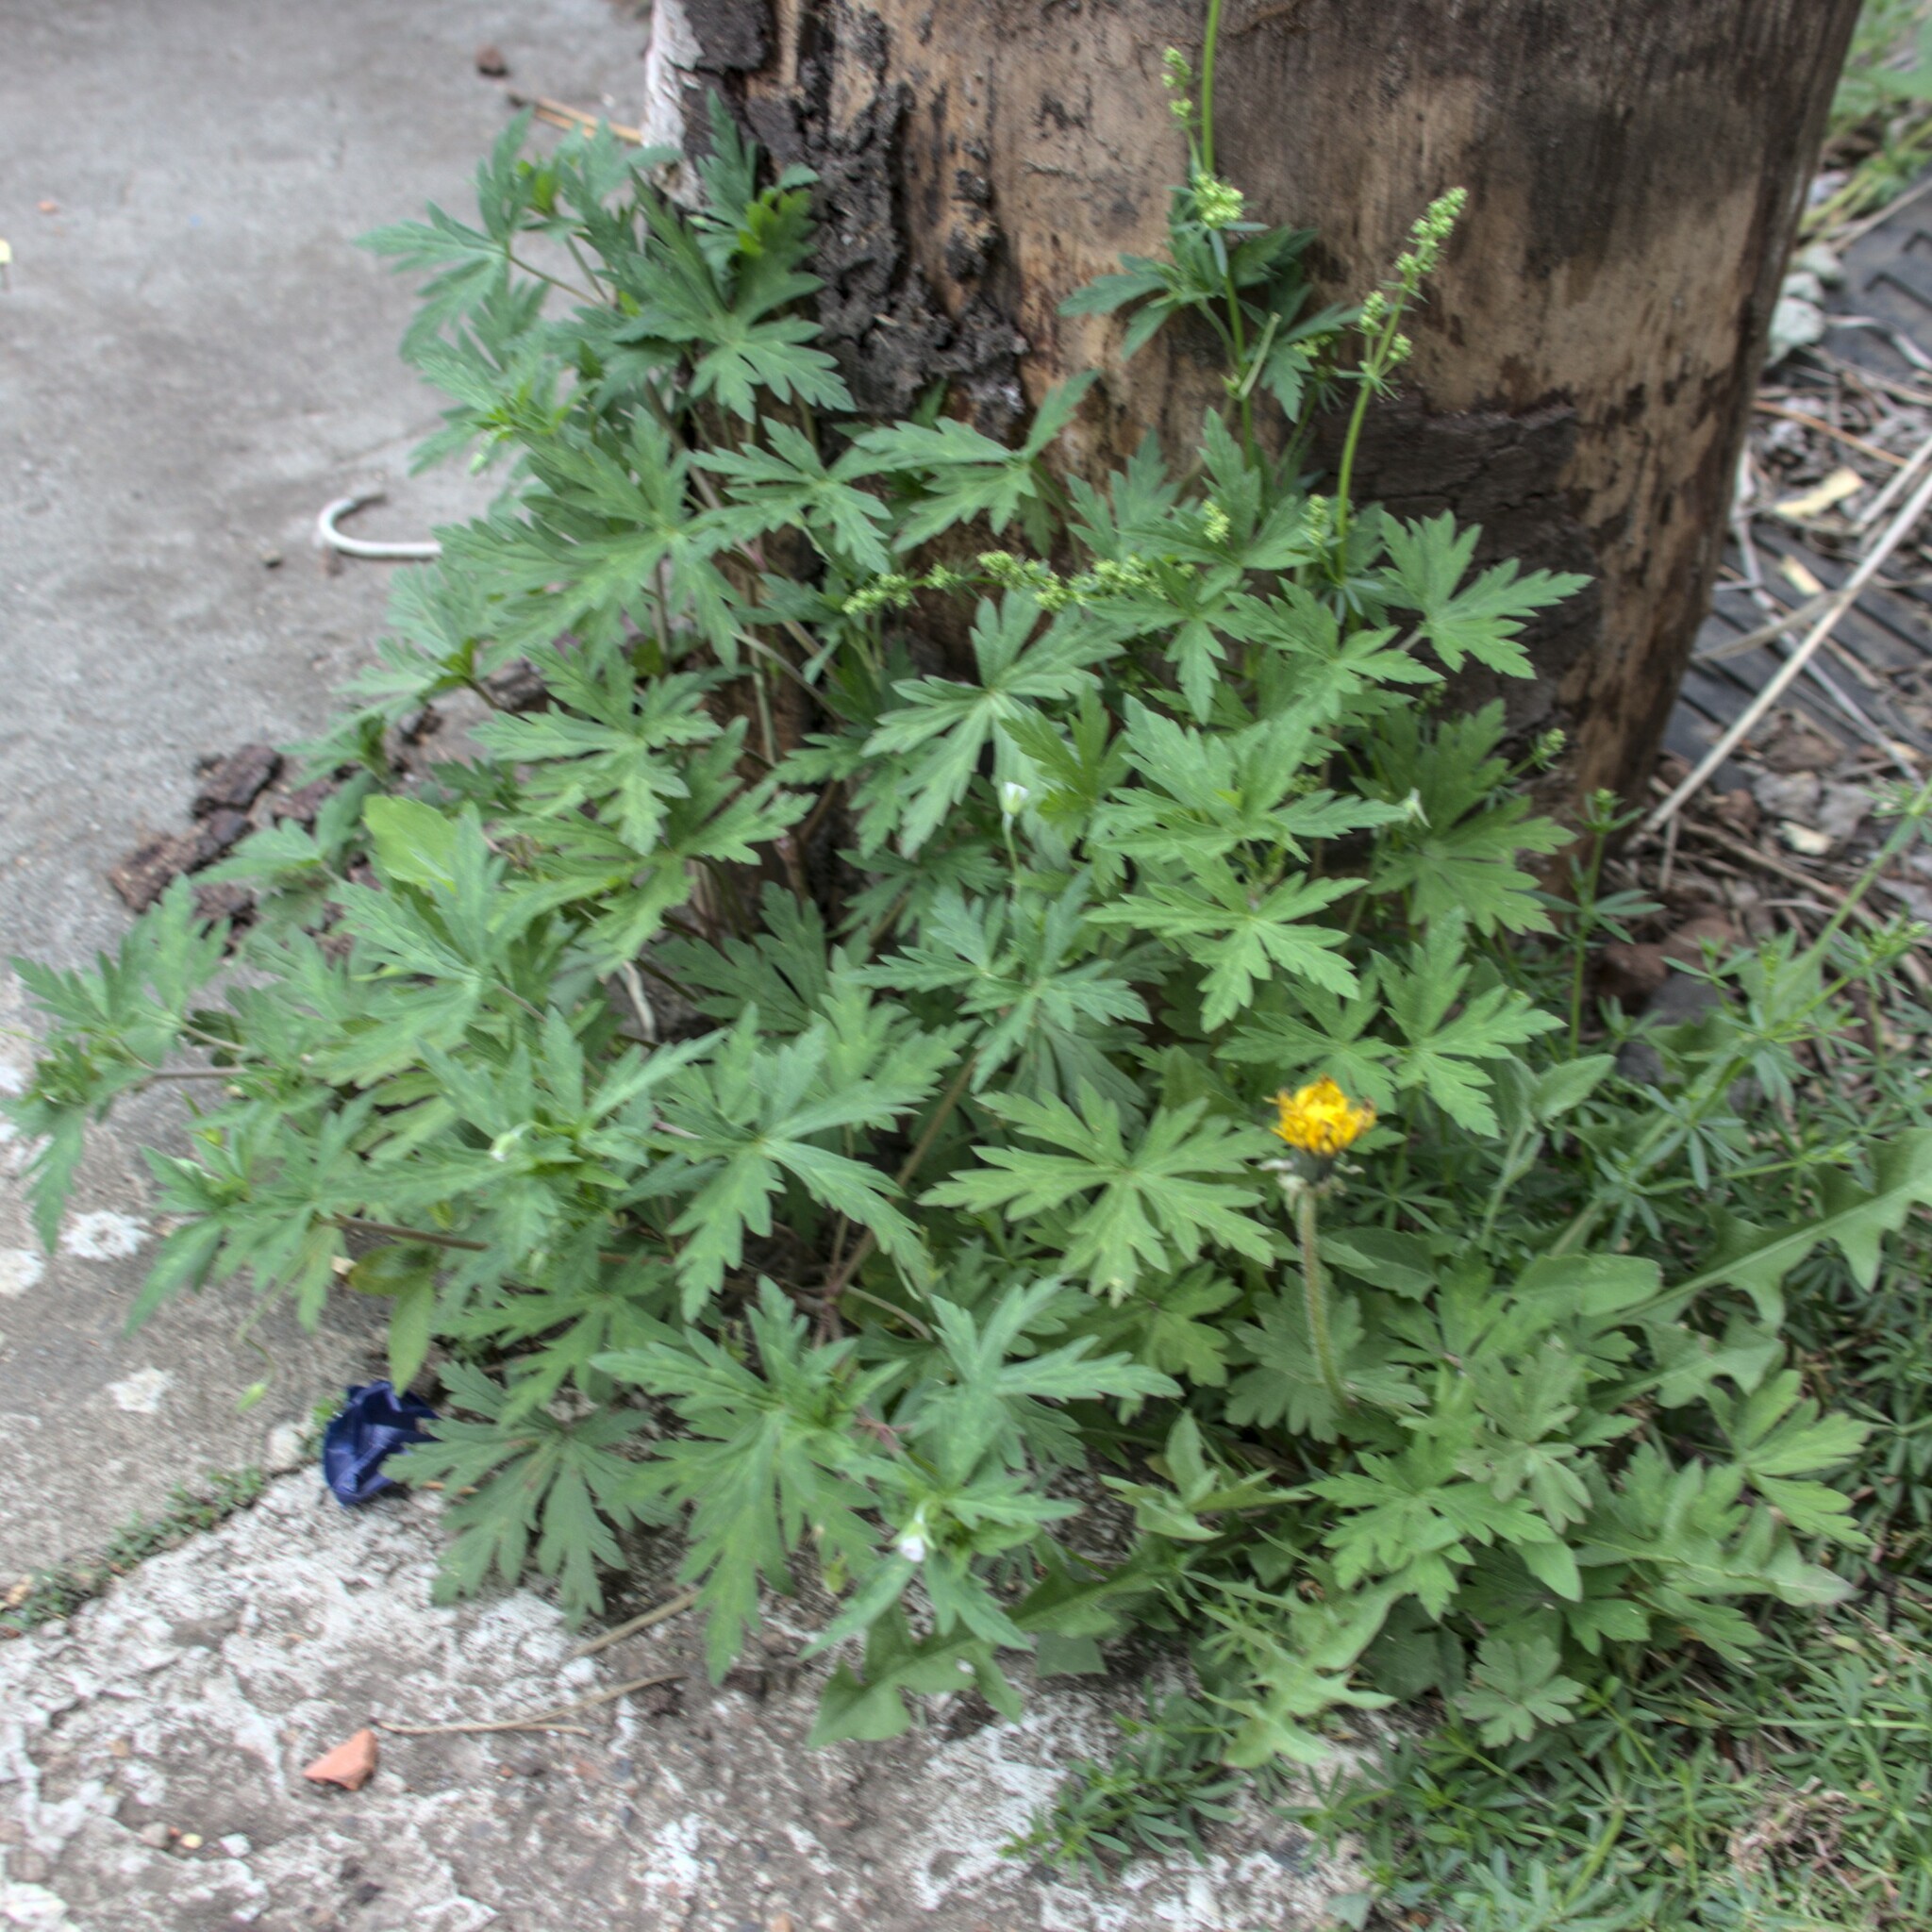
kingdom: Plantae
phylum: Tracheophyta
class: Magnoliopsida
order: Geraniales
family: Geraniaceae
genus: Geranium
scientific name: Geranium sibiricum
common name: Siberian crane's-bill
